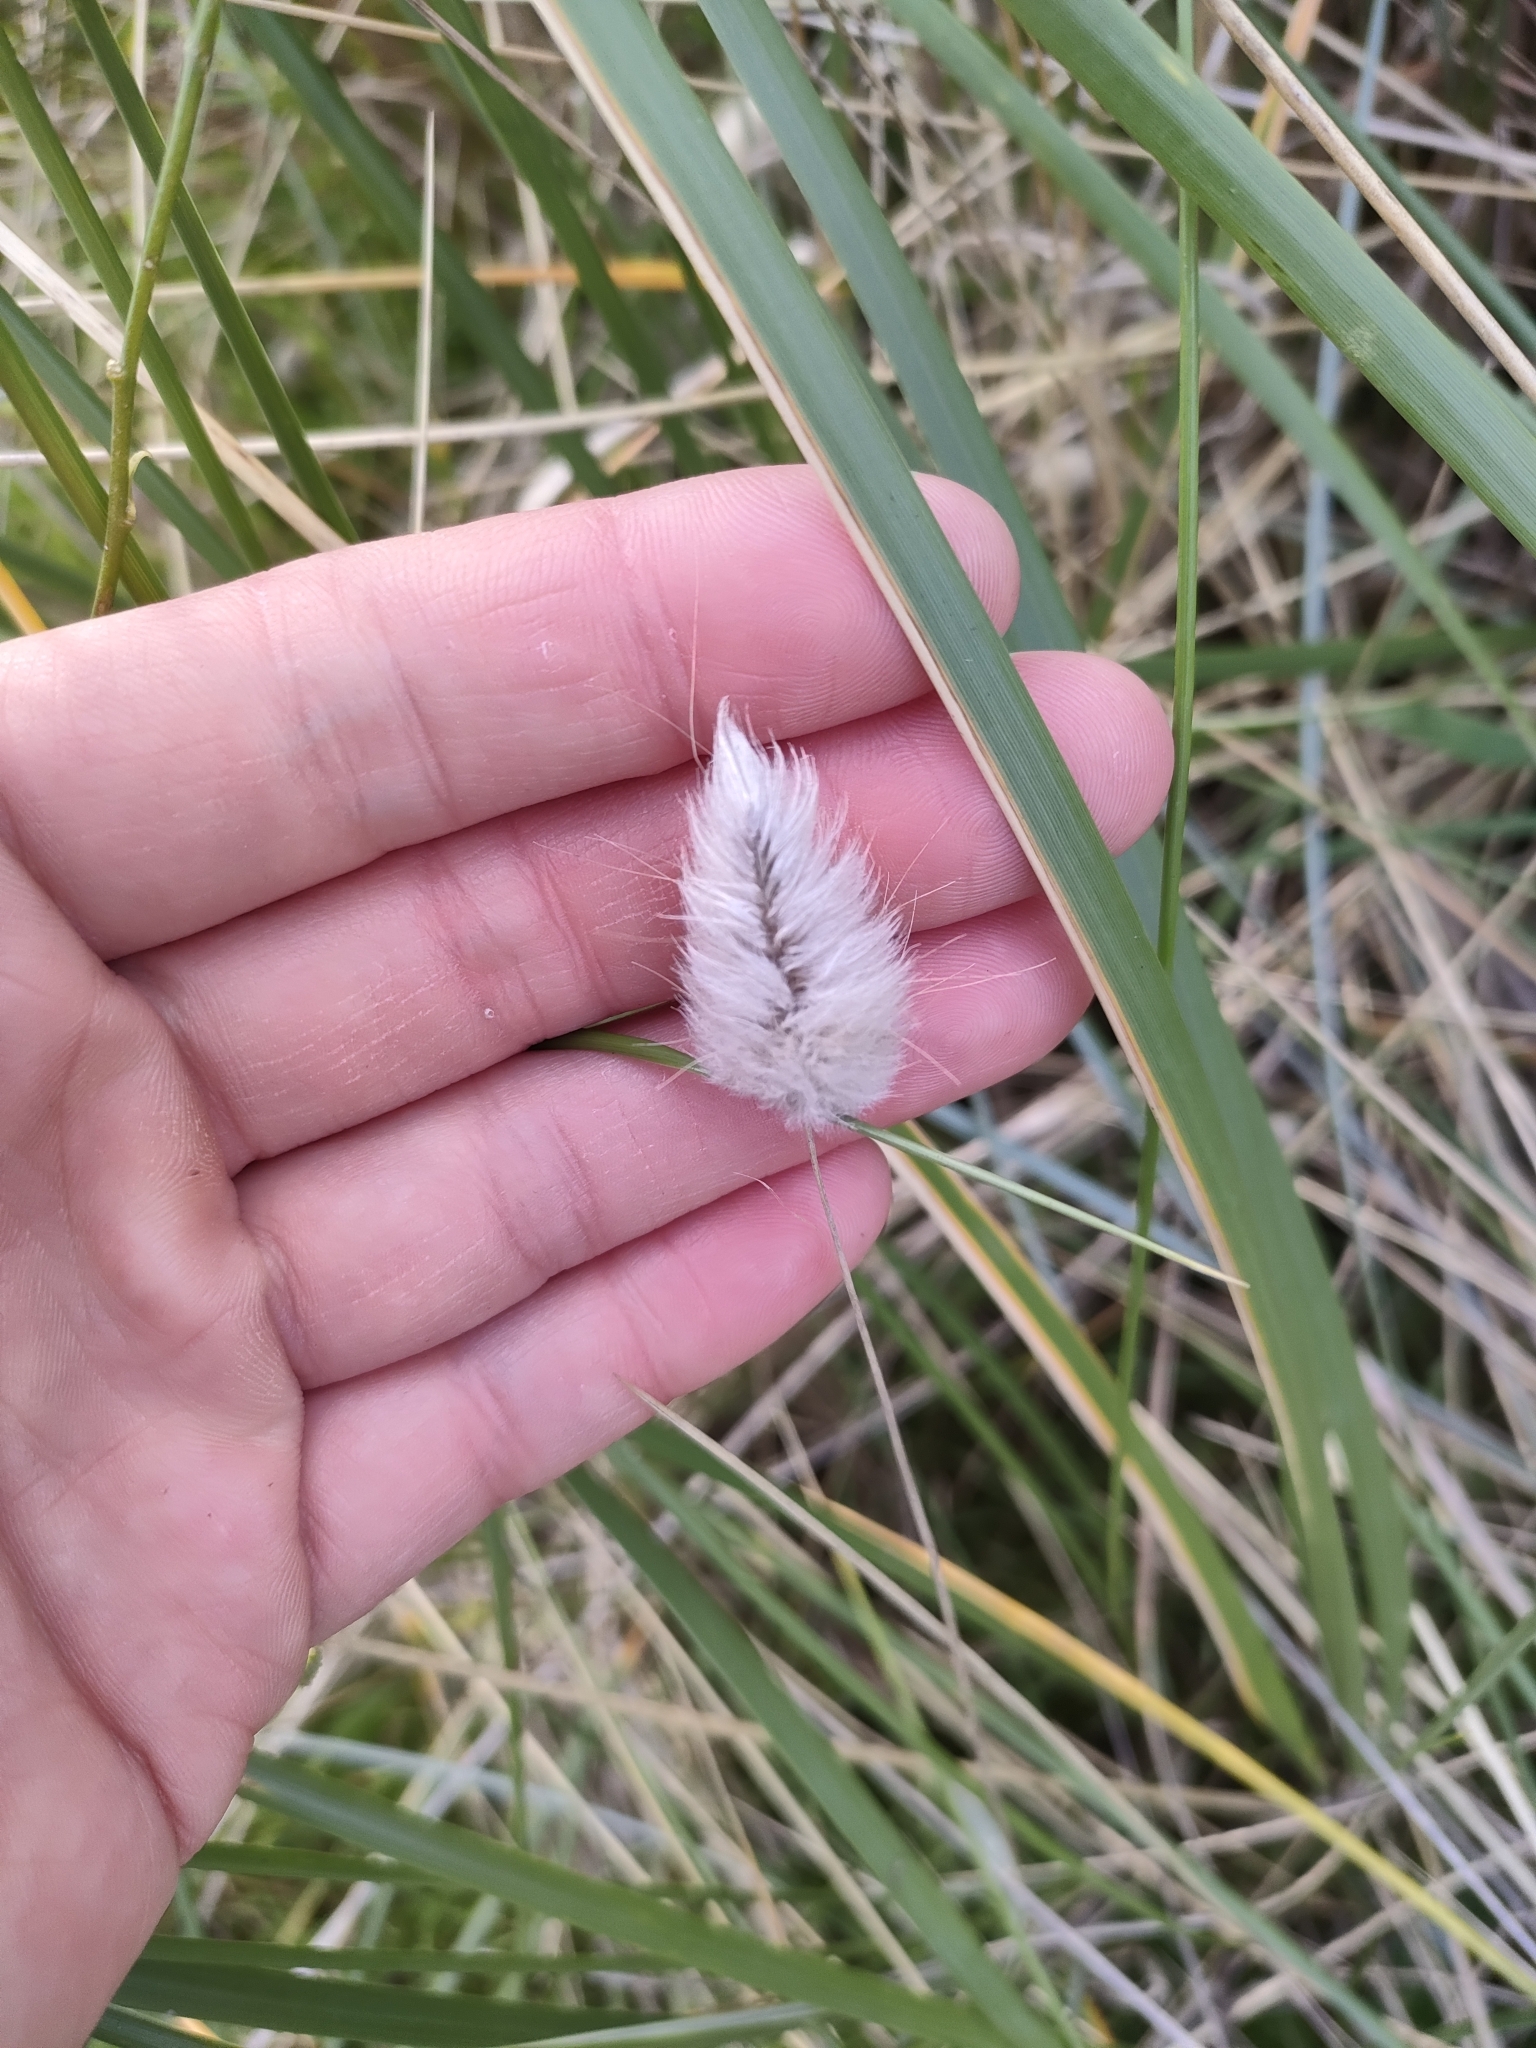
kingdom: Plantae
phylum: Tracheophyta
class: Liliopsida
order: Poales
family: Poaceae
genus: Lagurus
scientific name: Lagurus ovatus
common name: Hare's-tail
